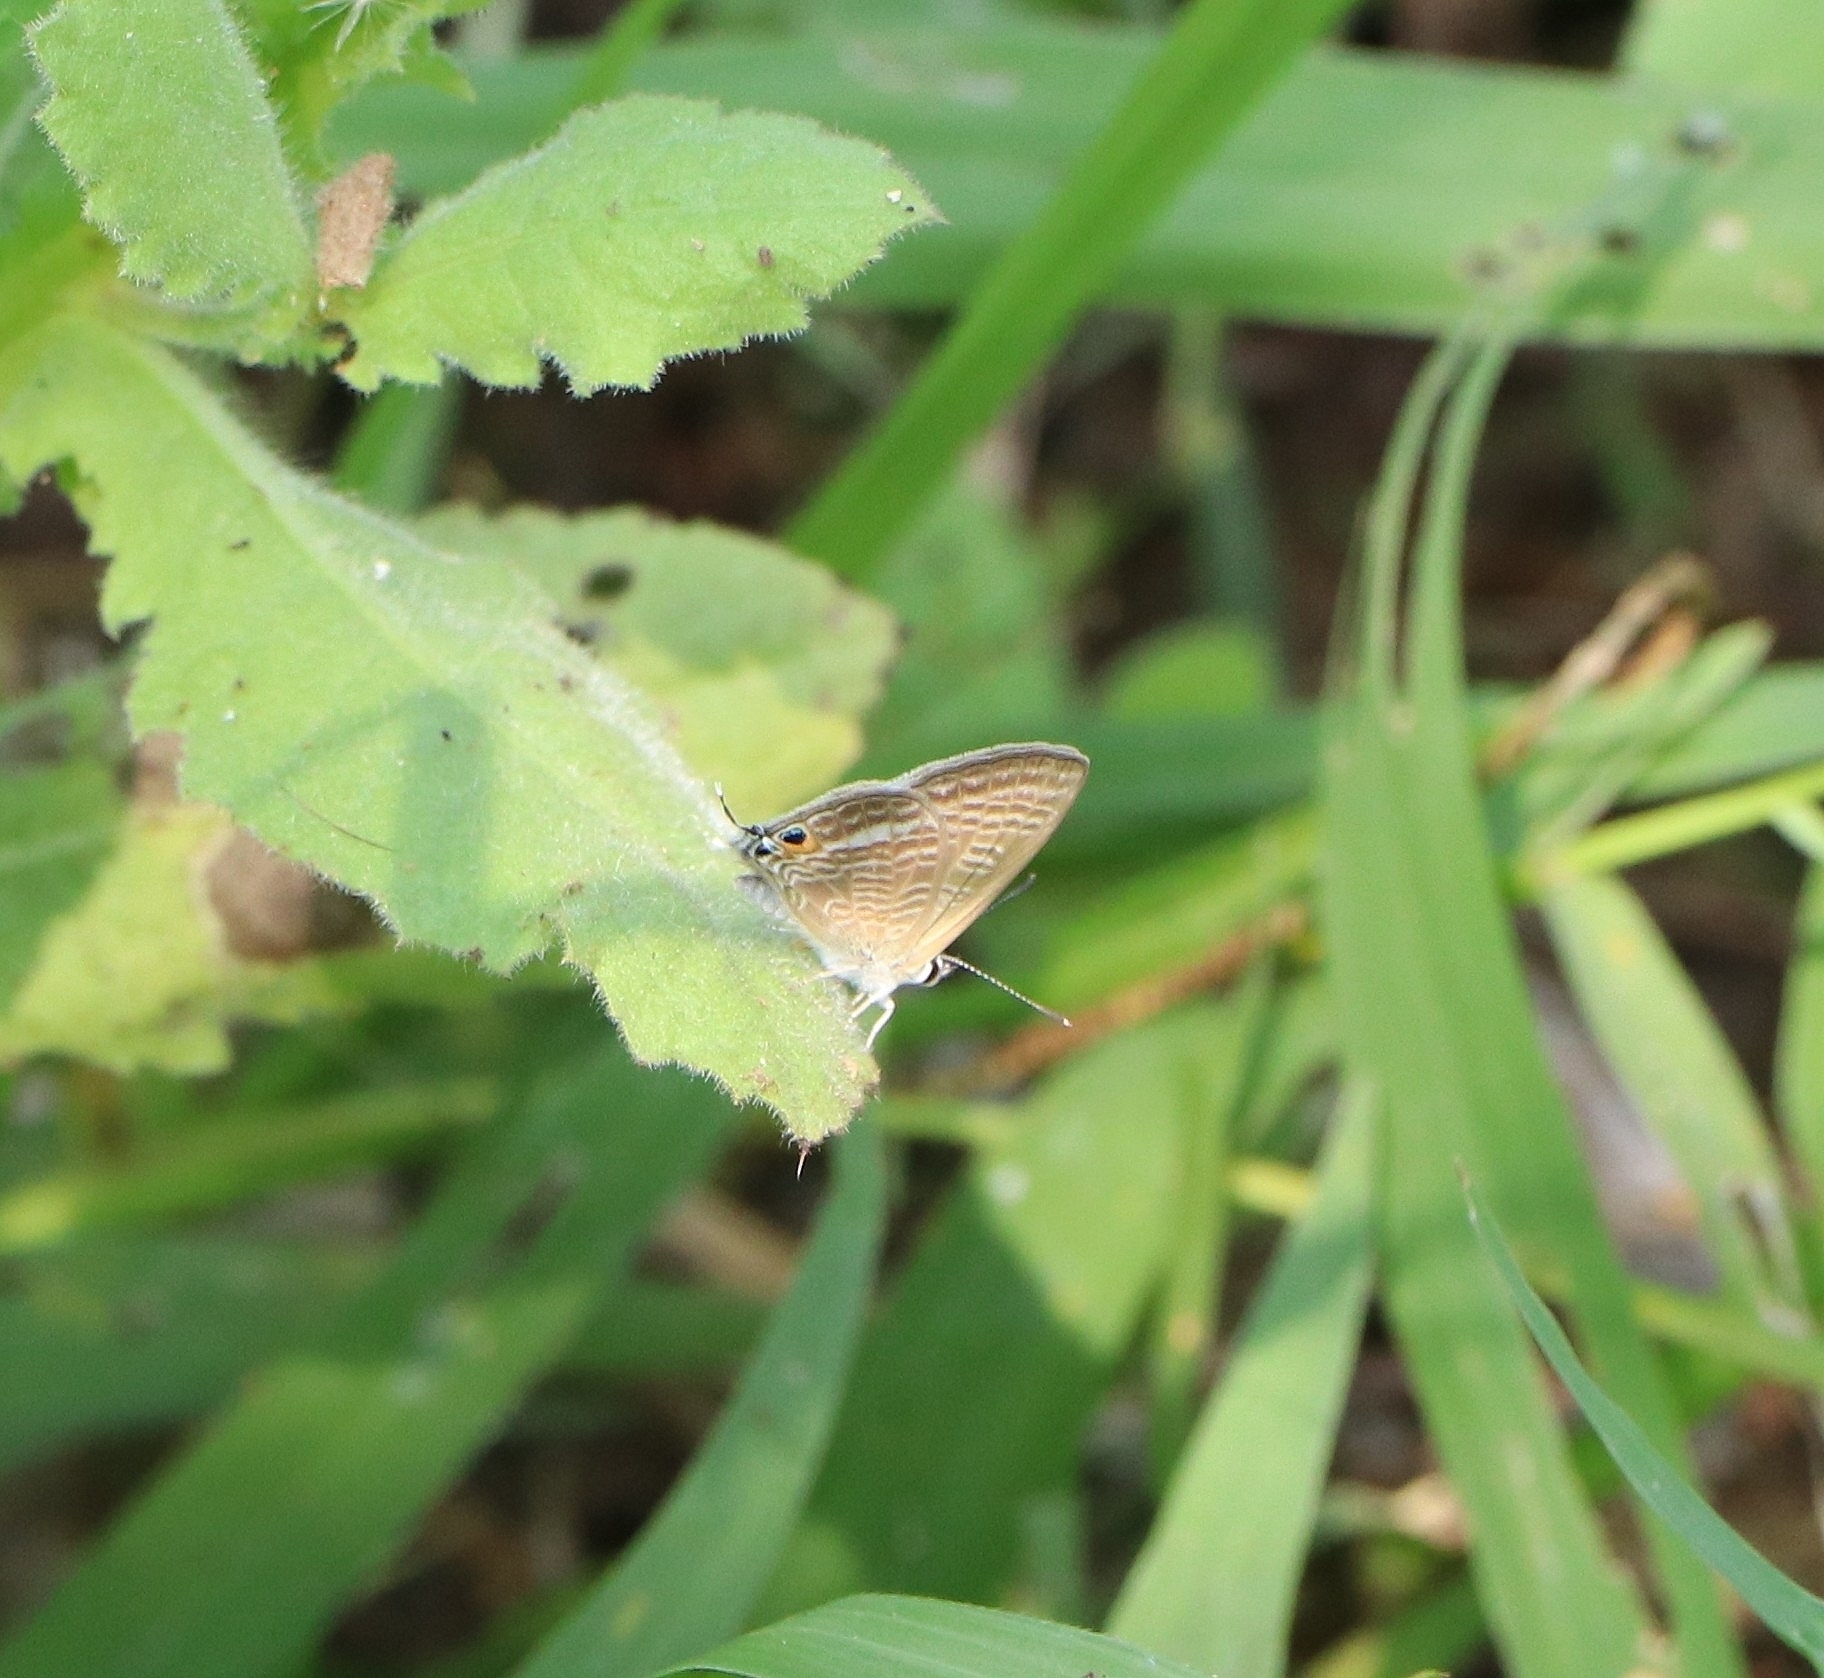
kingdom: Animalia
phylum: Arthropoda
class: Insecta
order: Lepidoptera
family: Lycaenidae
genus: Lampides
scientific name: Lampides boeticus
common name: Long-tailed blue
